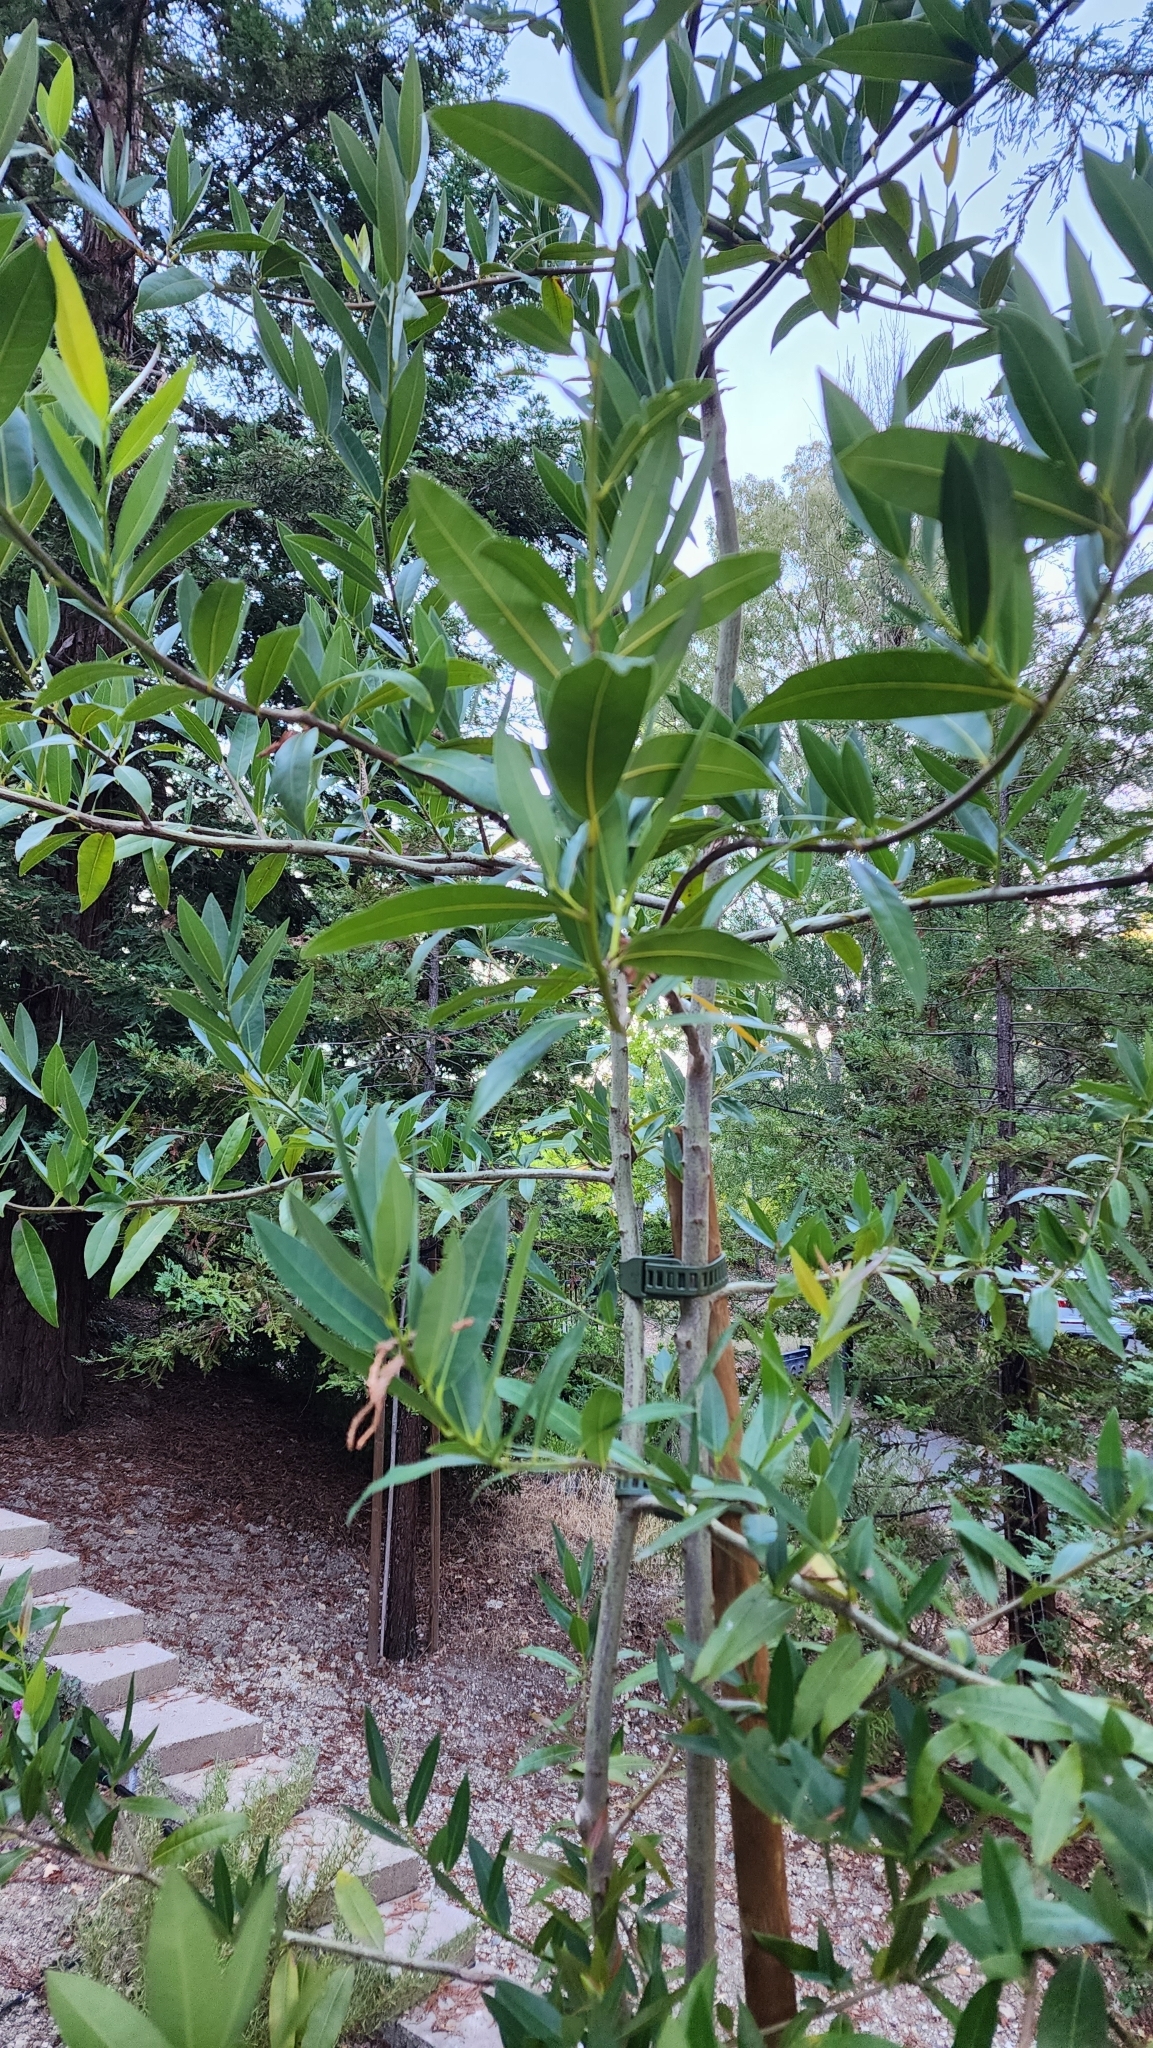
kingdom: Plantae
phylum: Tracheophyta
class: Magnoliopsida
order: Laurales
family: Lauraceae
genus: Umbellularia
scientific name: Umbellularia californica
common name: California bay
